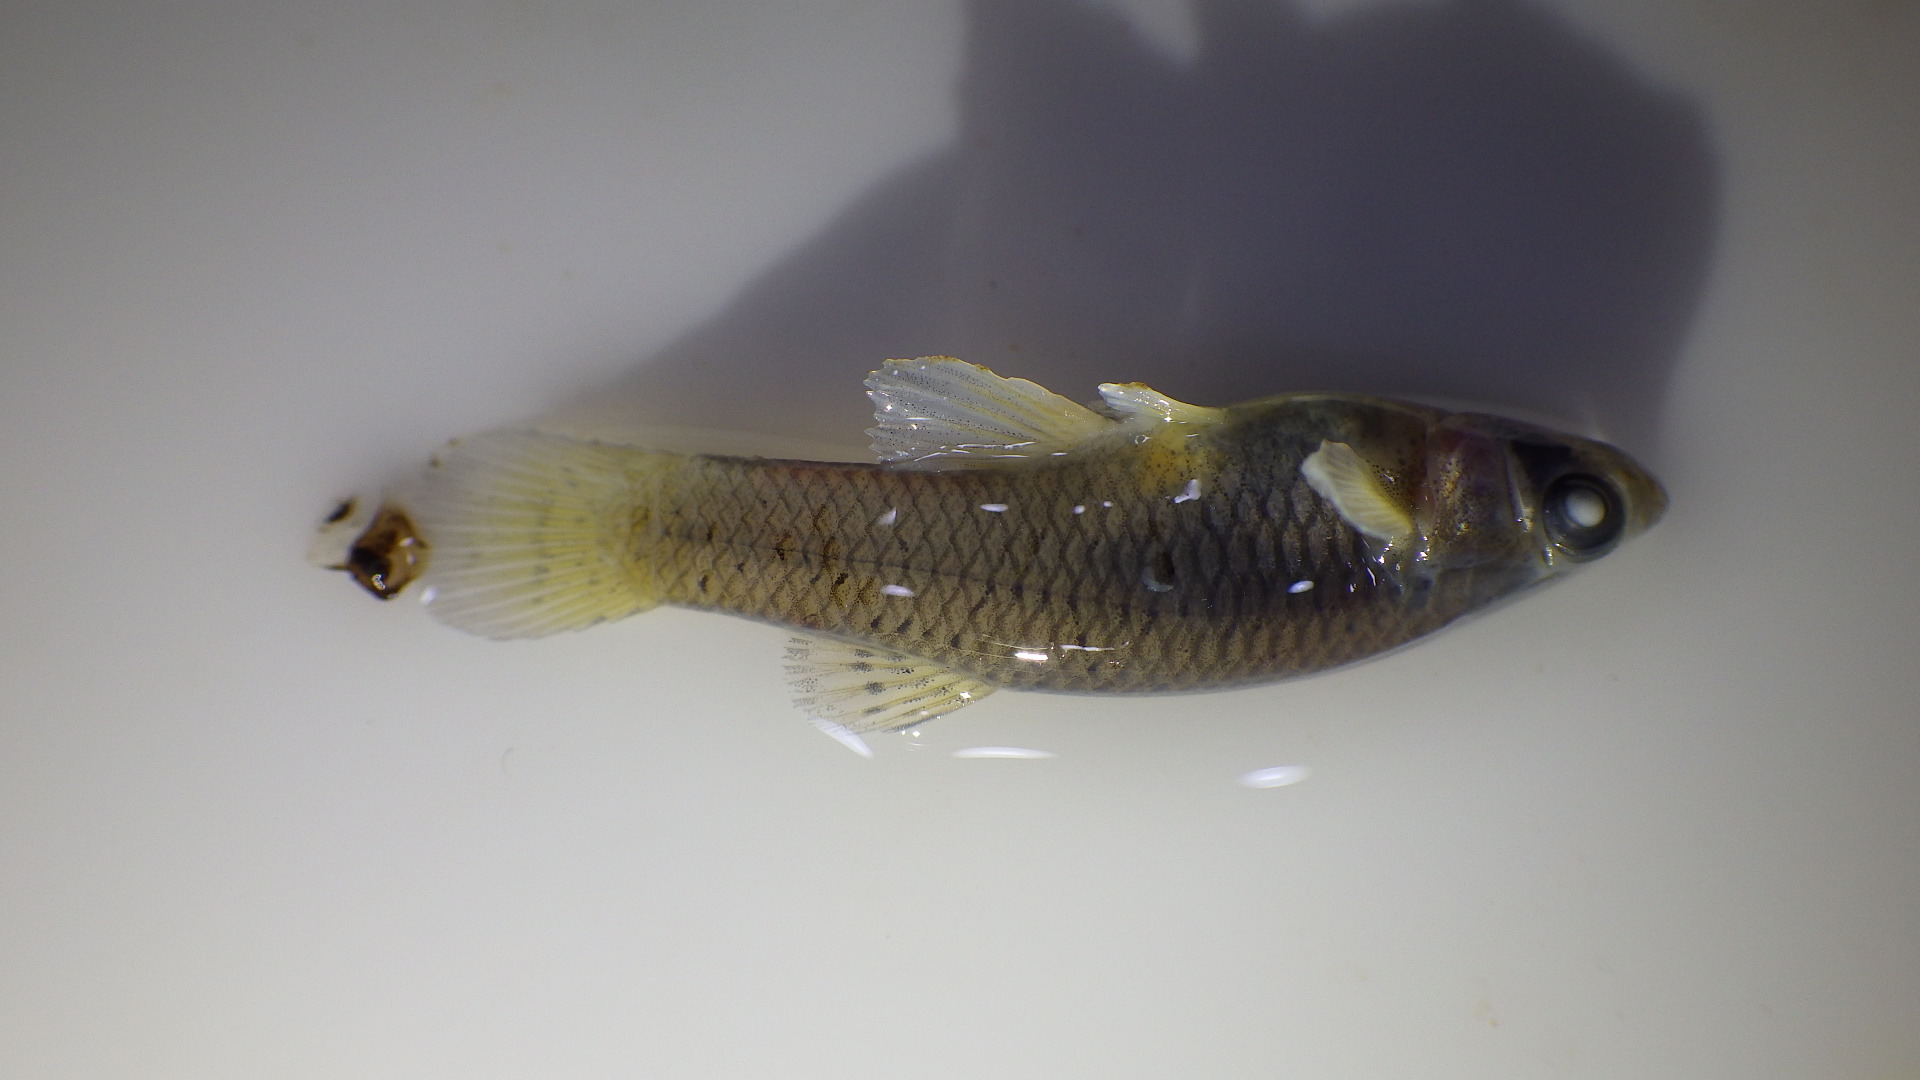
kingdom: Animalia
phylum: Chordata
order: Cyprinodontiformes
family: Poeciliidae
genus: Gambusia
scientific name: Gambusia affinis
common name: Mosquitofish
